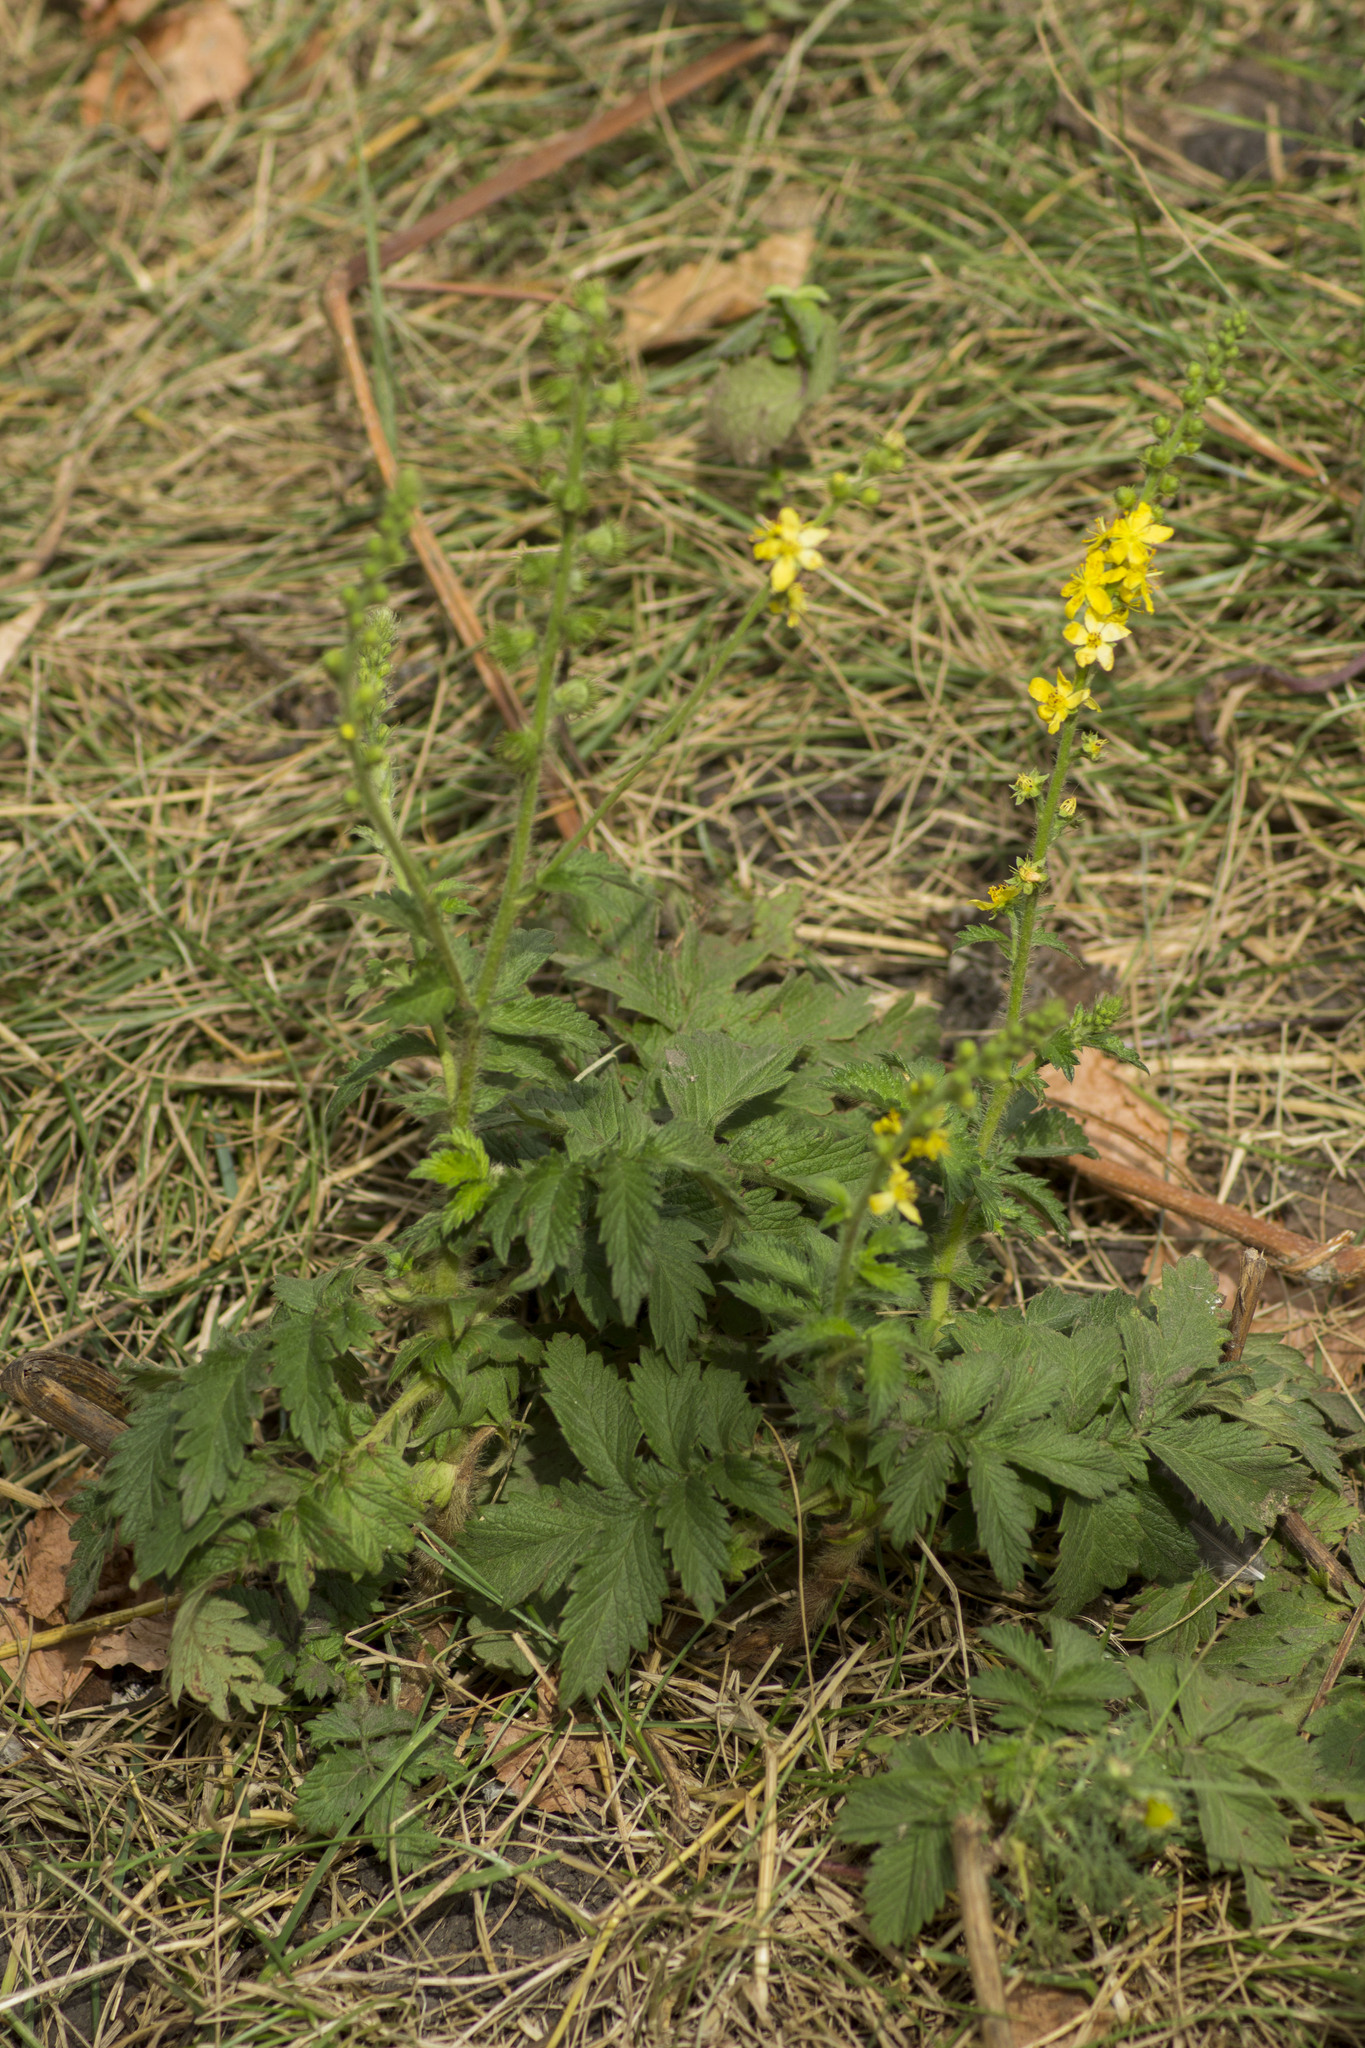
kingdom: Plantae
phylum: Tracheophyta
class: Magnoliopsida
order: Rosales
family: Rosaceae
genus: Agrimonia
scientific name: Agrimonia eupatoria
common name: Agrimony
